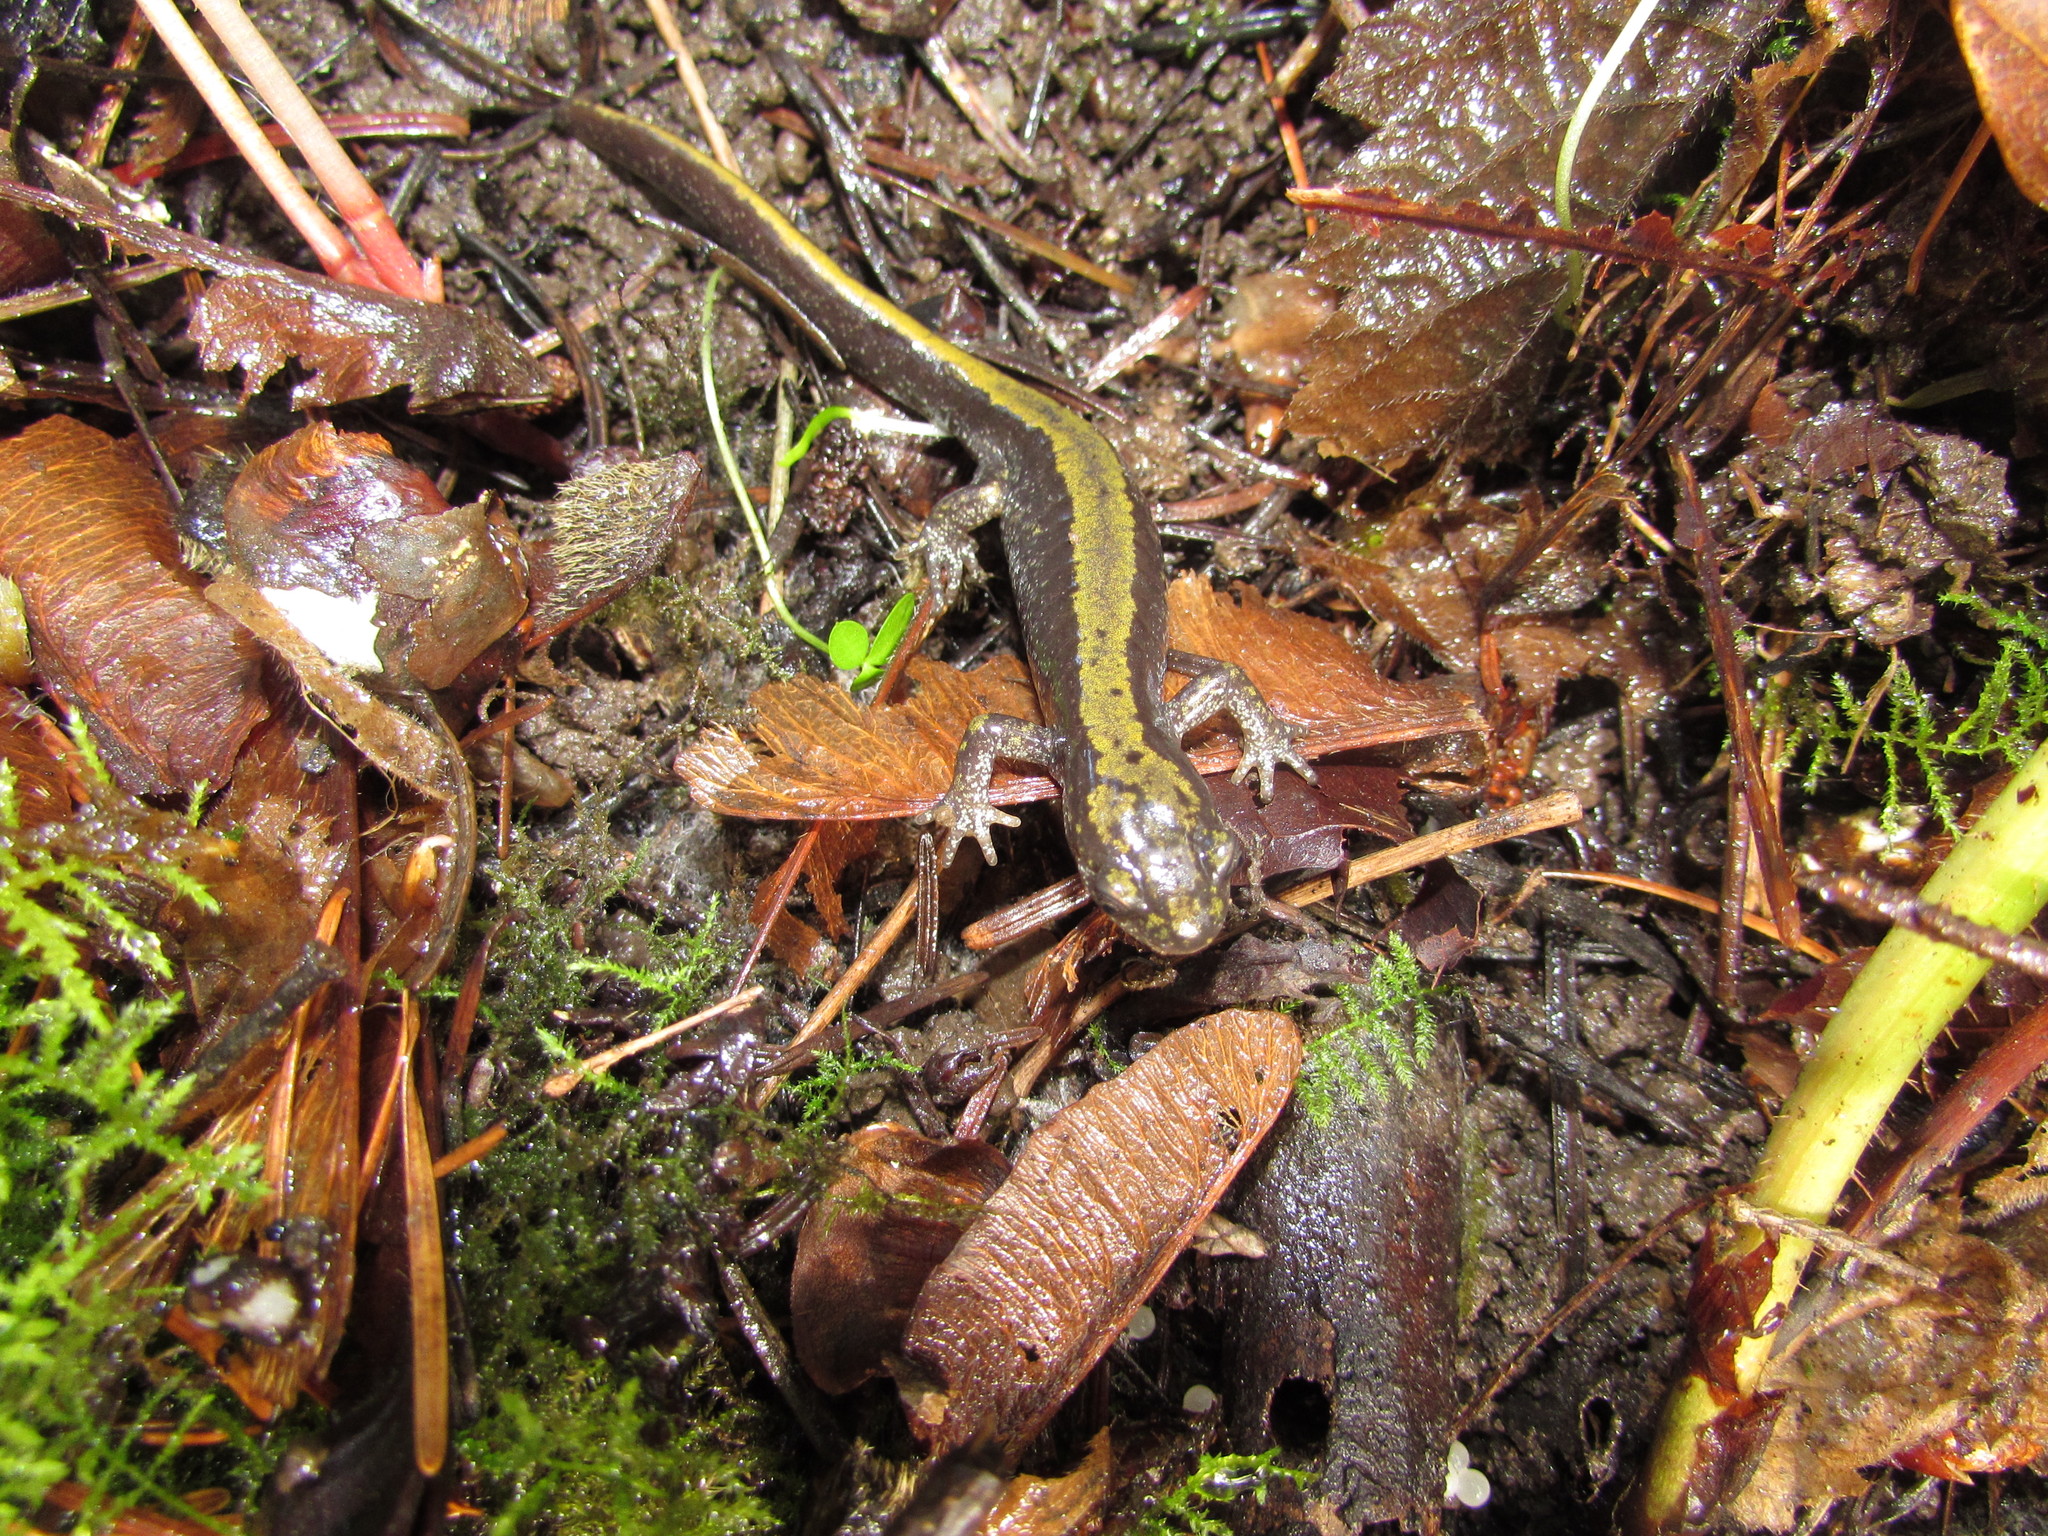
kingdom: Animalia
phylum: Chordata
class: Amphibia
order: Caudata
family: Ambystomatidae
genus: Ambystoma
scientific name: Ambystoma macrodactylum
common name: Long-toed salamander
